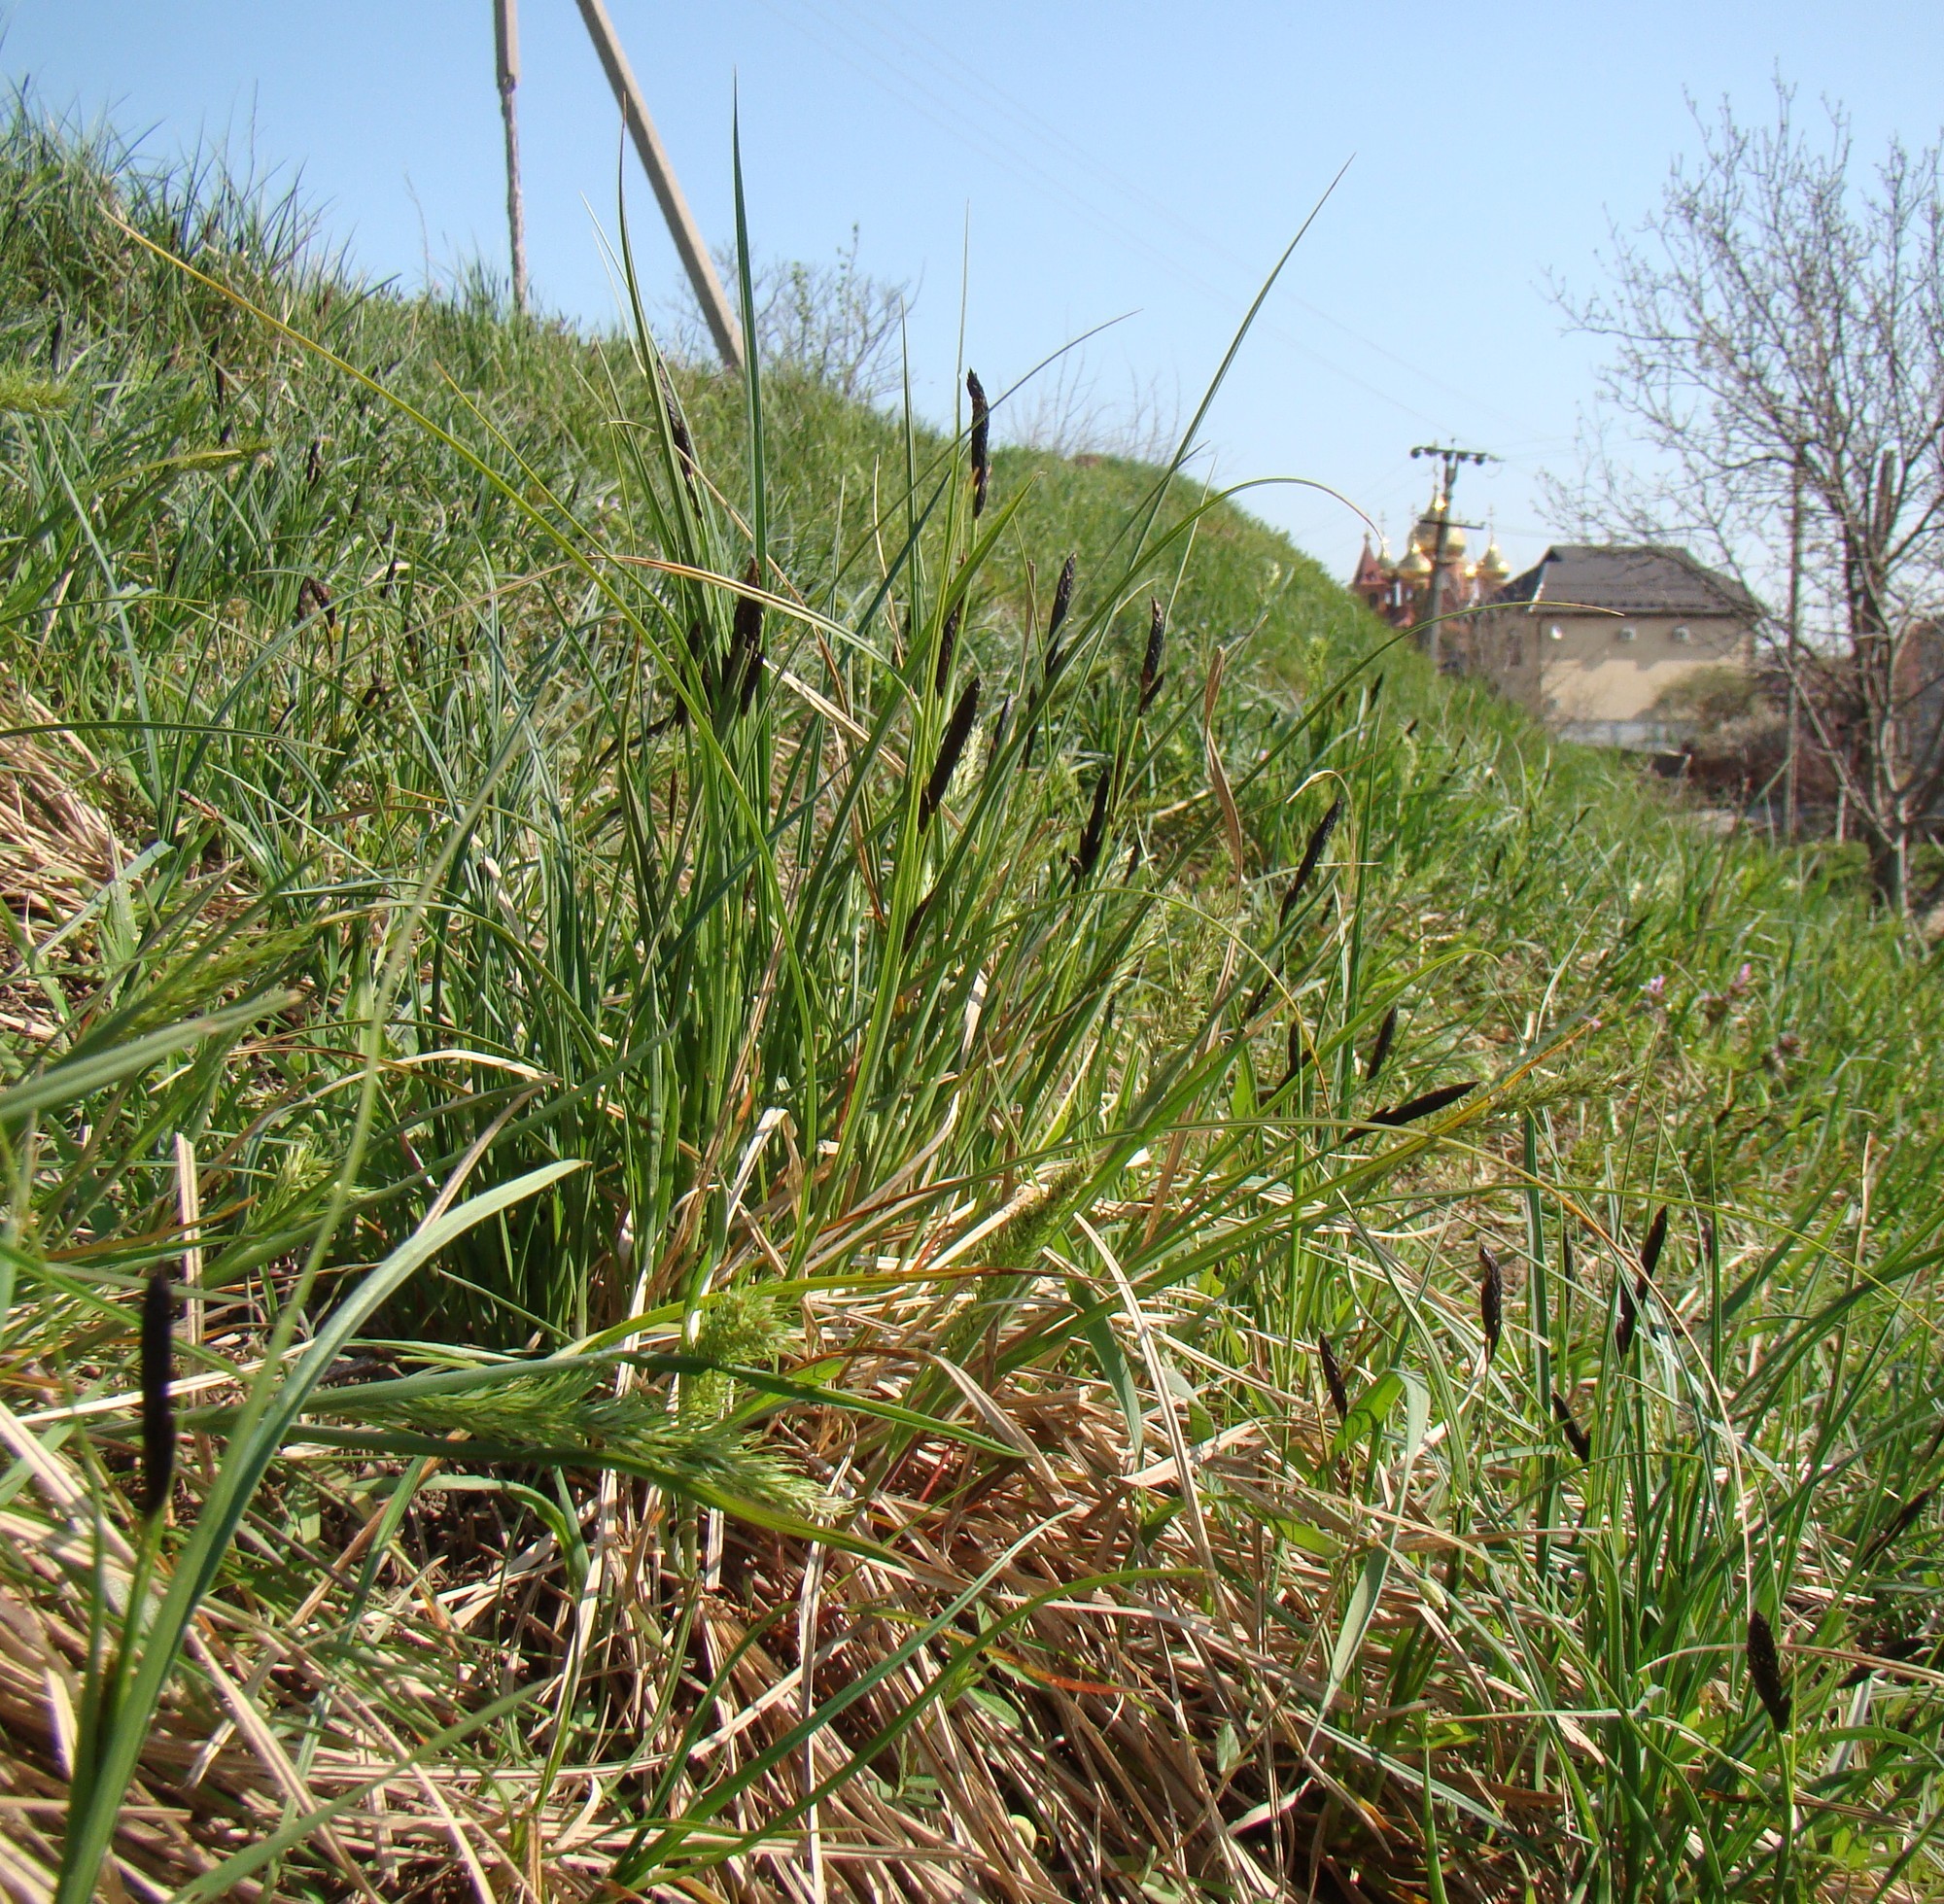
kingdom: Plantae
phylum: Tracheophyta
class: Liliopsida
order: Poales
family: Cyperaceae
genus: Carex
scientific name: Carex melanostachya
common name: Black-spiked sedge
